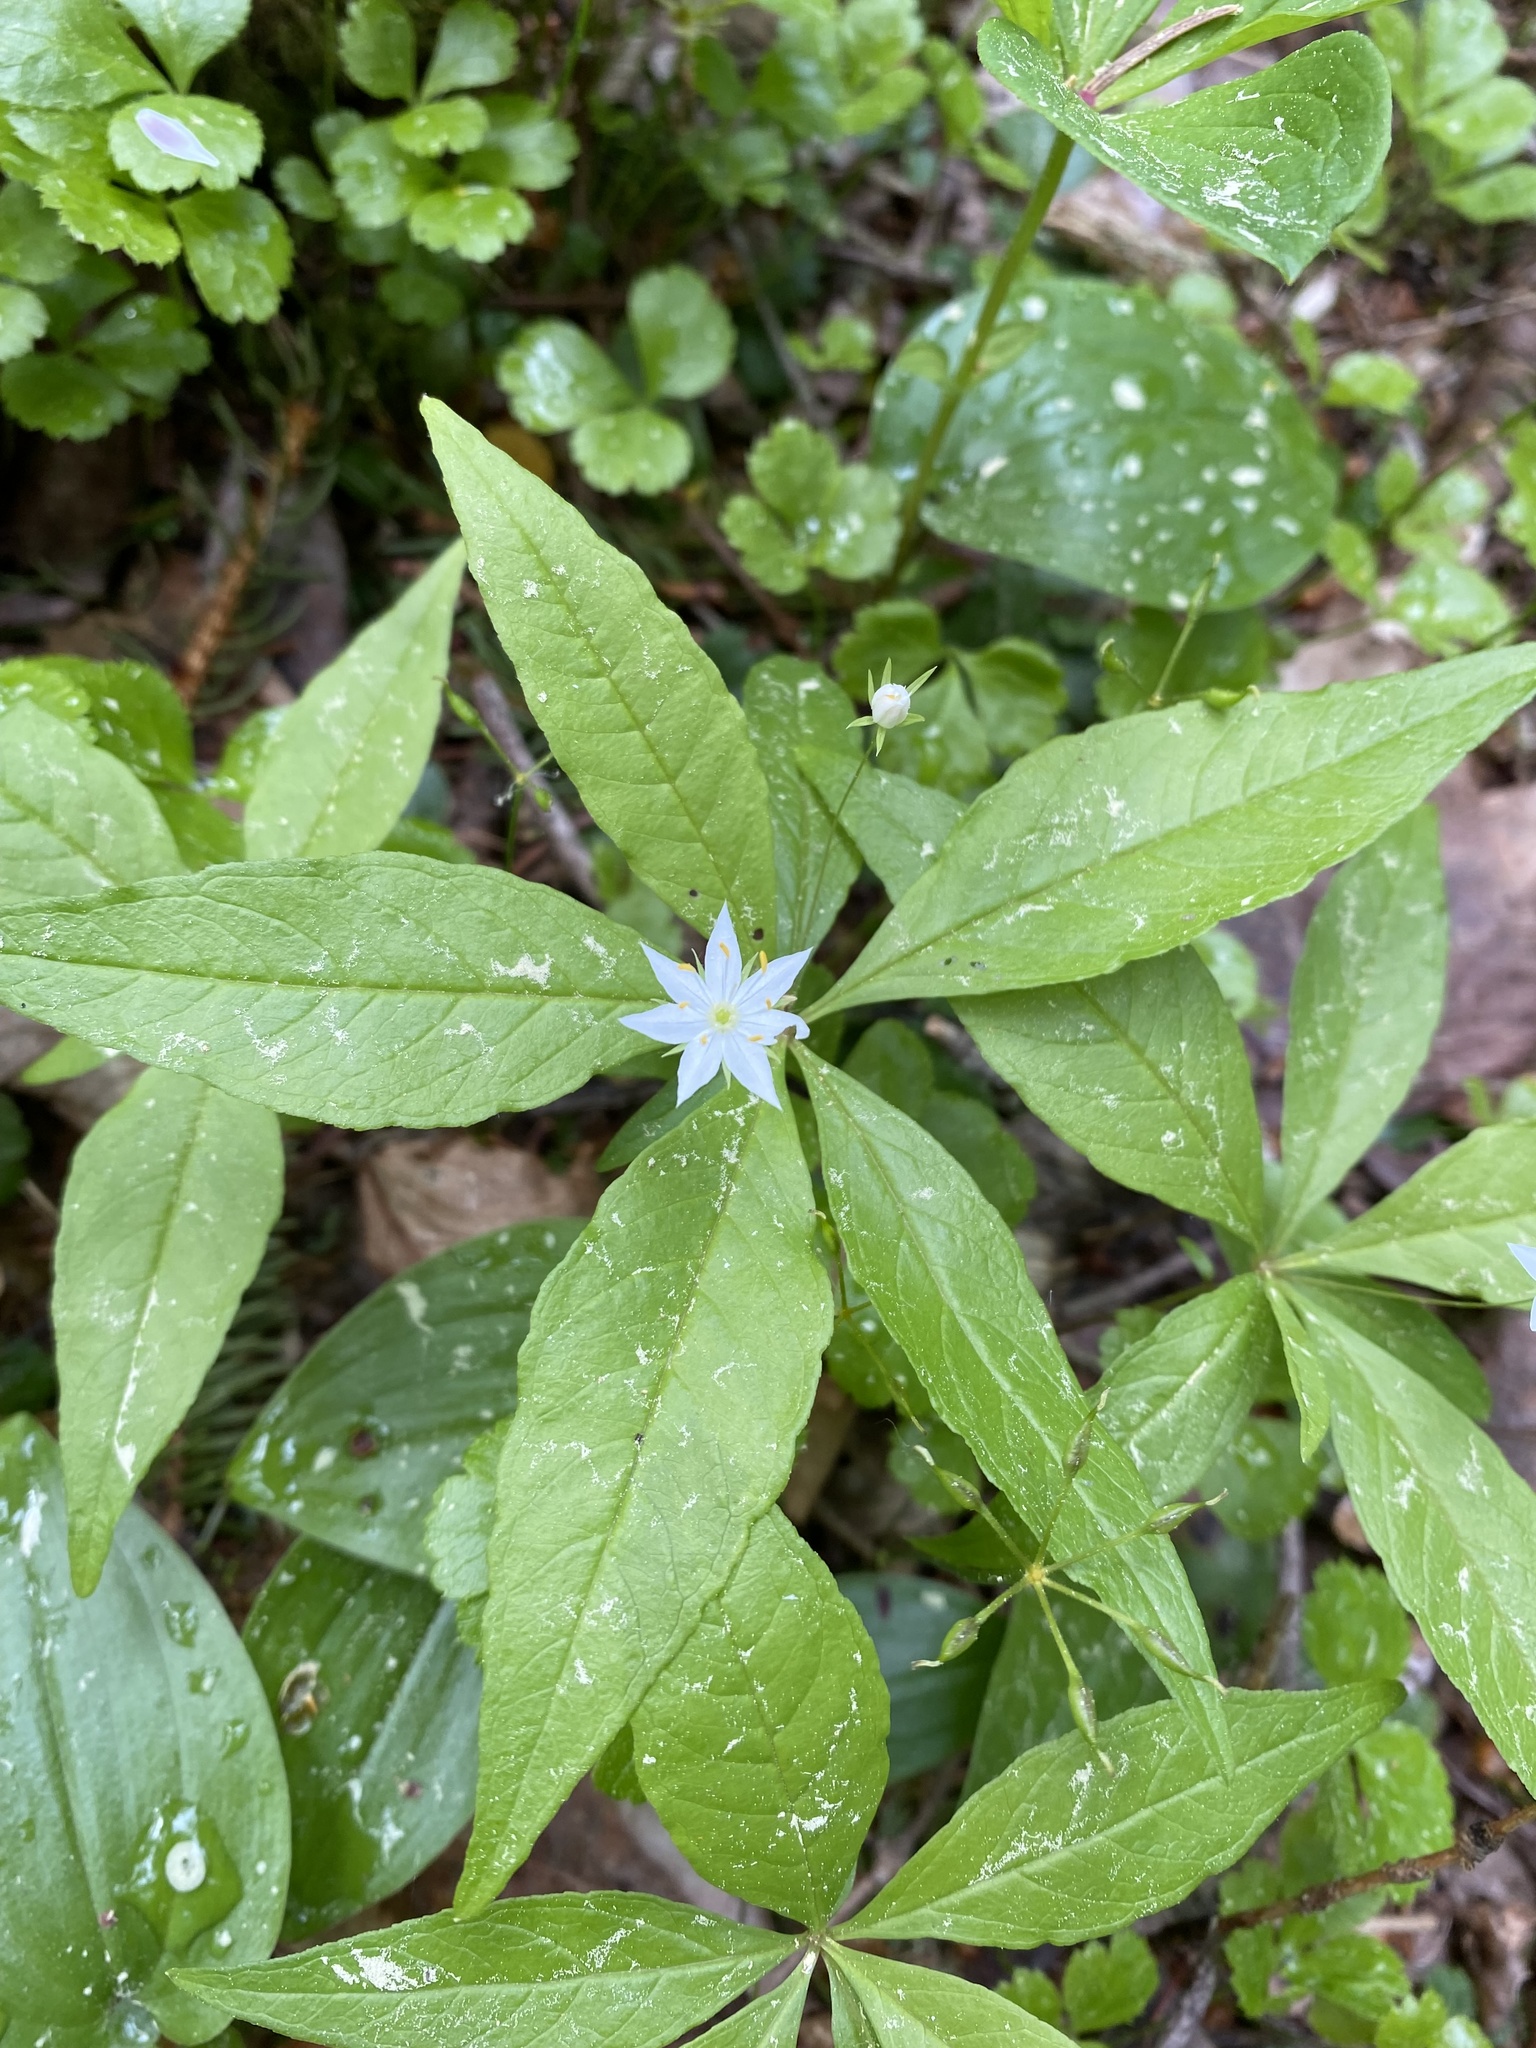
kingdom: Plantae
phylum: Tracheophyta
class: Magnoliopsida
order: Ericales
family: Primulaceae
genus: Lysimachia
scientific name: Lysimachia borealis
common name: American starflower
